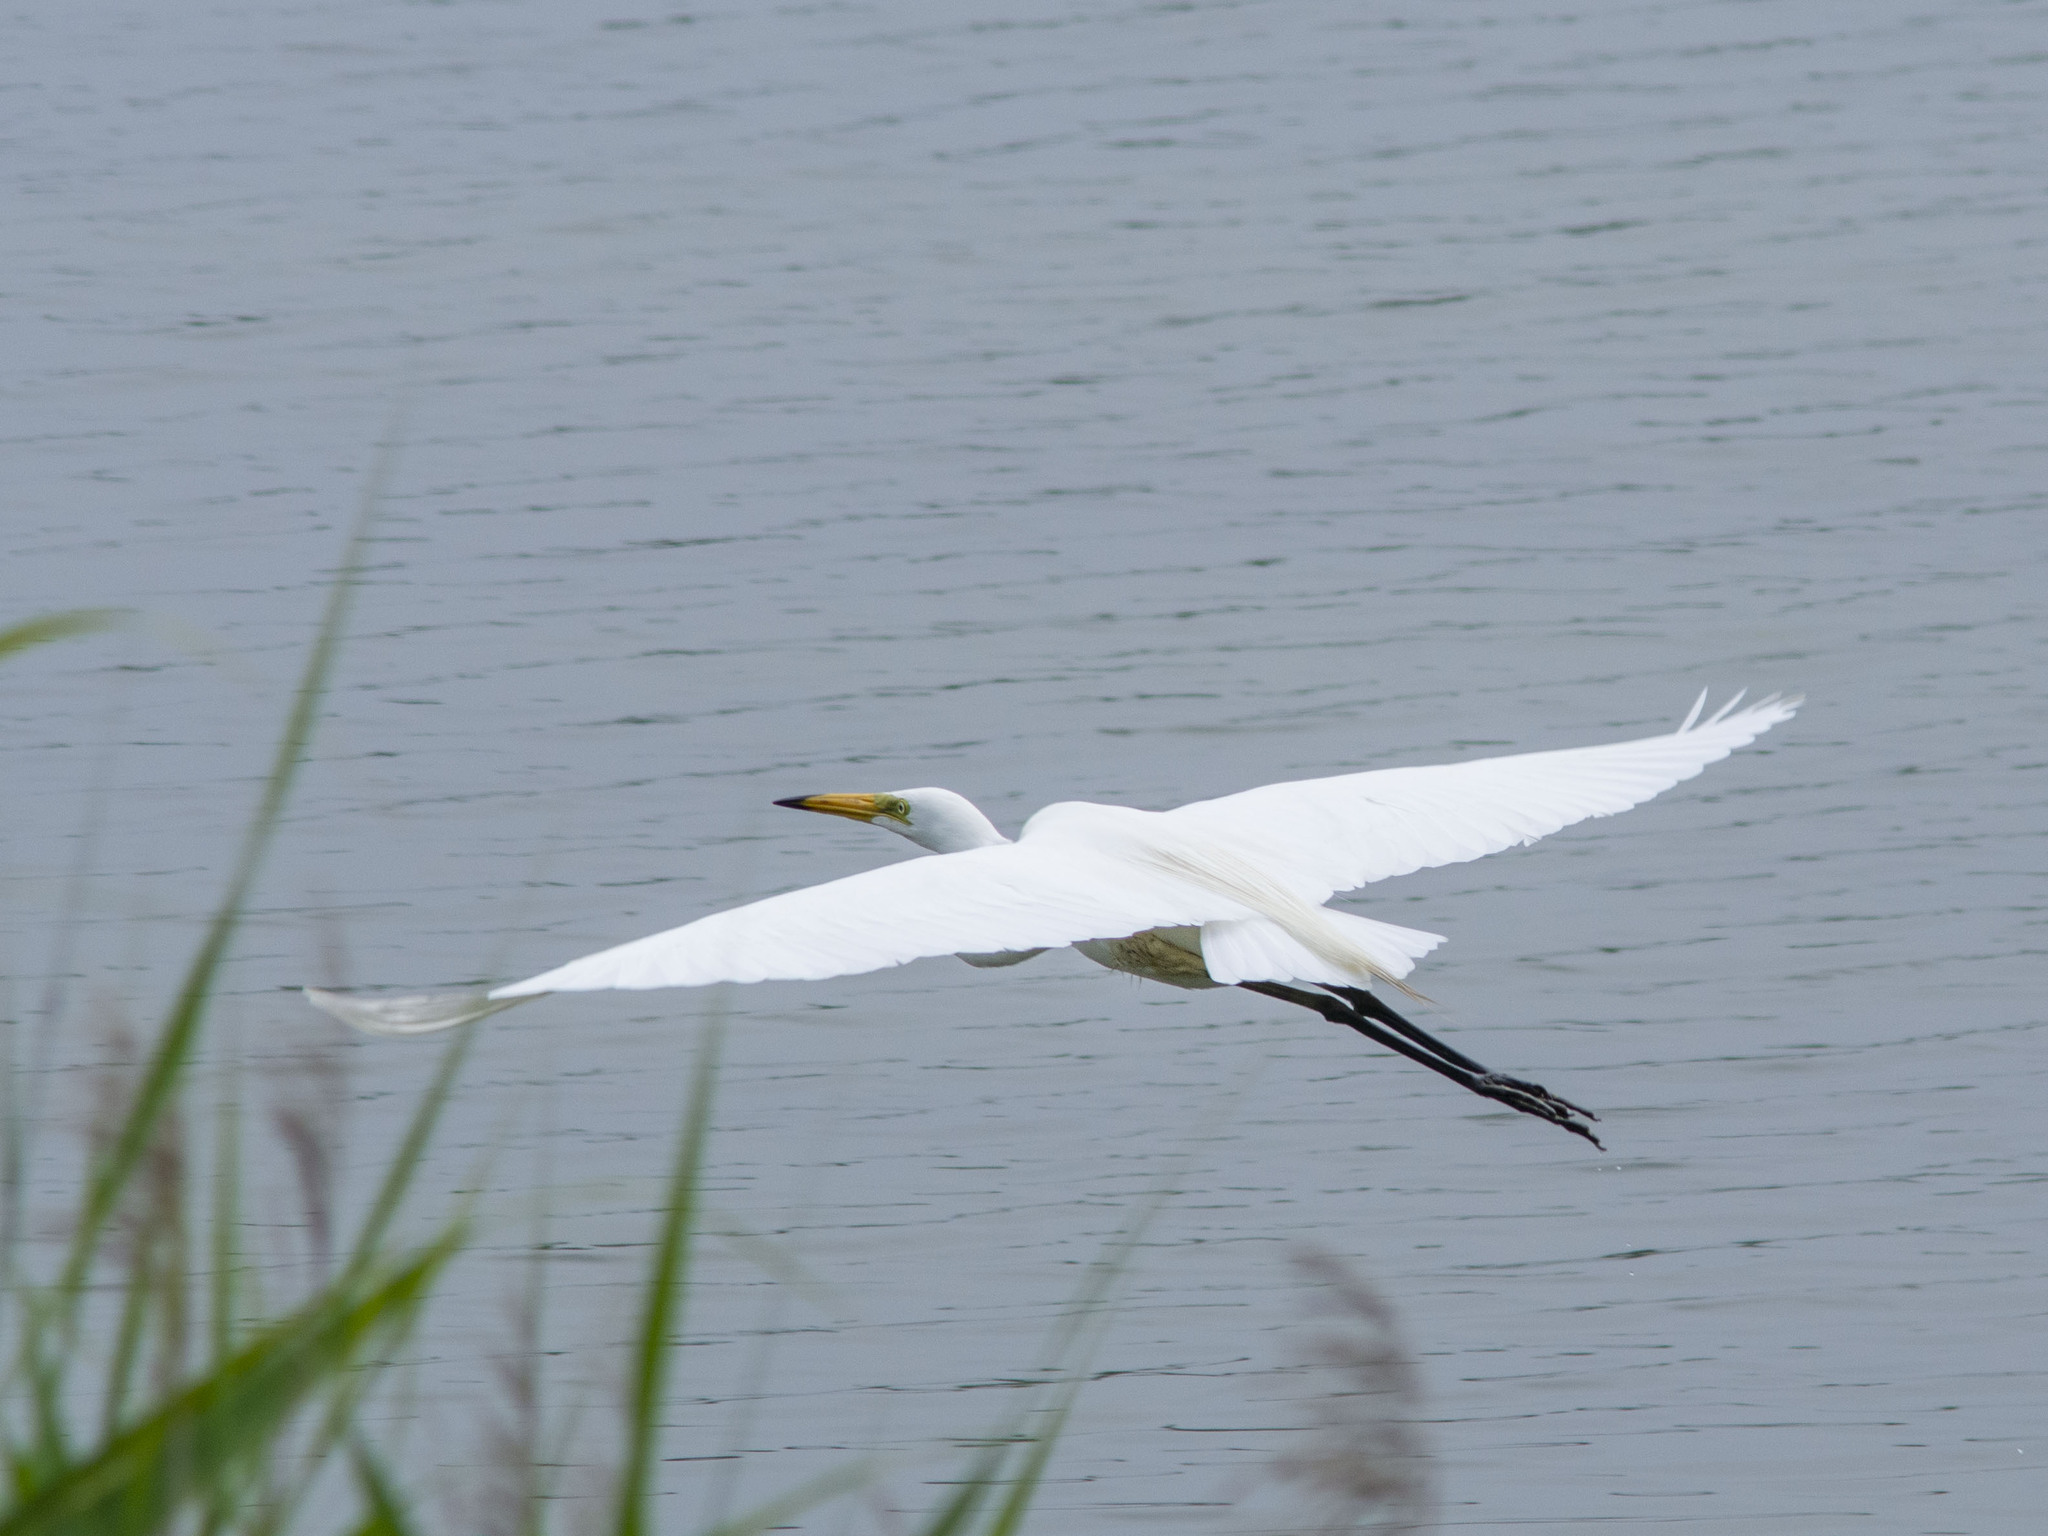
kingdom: Animalia
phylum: Chordata
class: Aves
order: Pelecaniformes
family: Ardeidae
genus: Ardea
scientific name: Ardea alba
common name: Great egret
